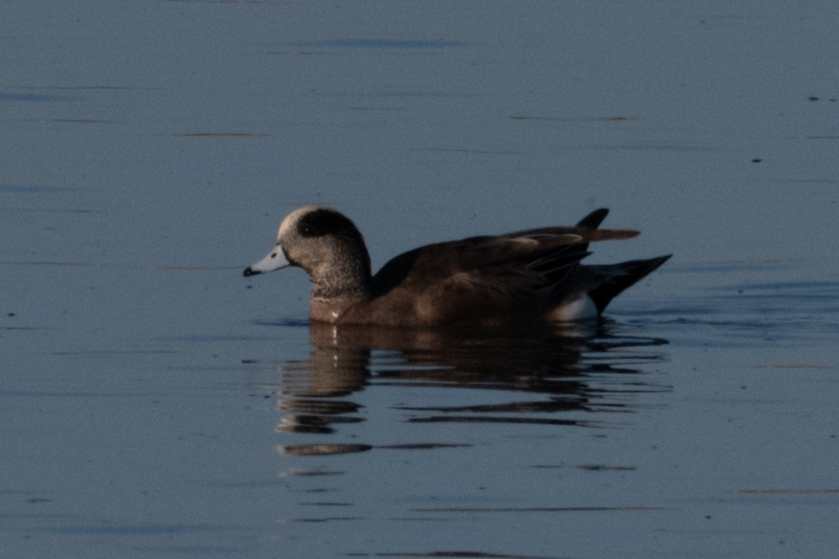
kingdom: Animalia
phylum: Chordata
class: Aves
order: Anseriformes
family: Anatidae
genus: Mareca
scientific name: Mareca americana
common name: American wigeon
